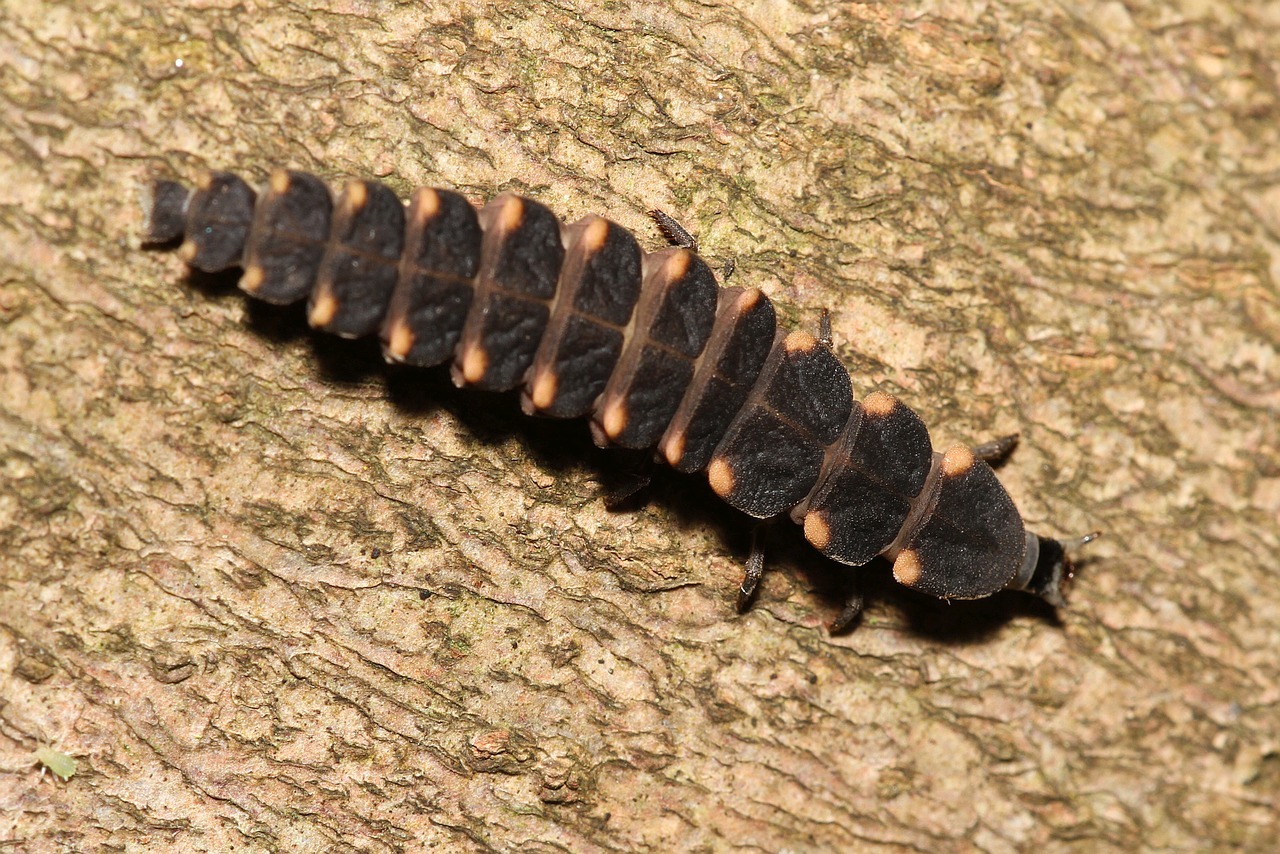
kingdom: Animalia
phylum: Arthropoda
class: Insecta
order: Coleoptera
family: Lampyridae
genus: Lampyris
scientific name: Lampyris noctiluca
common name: Glow-worm
